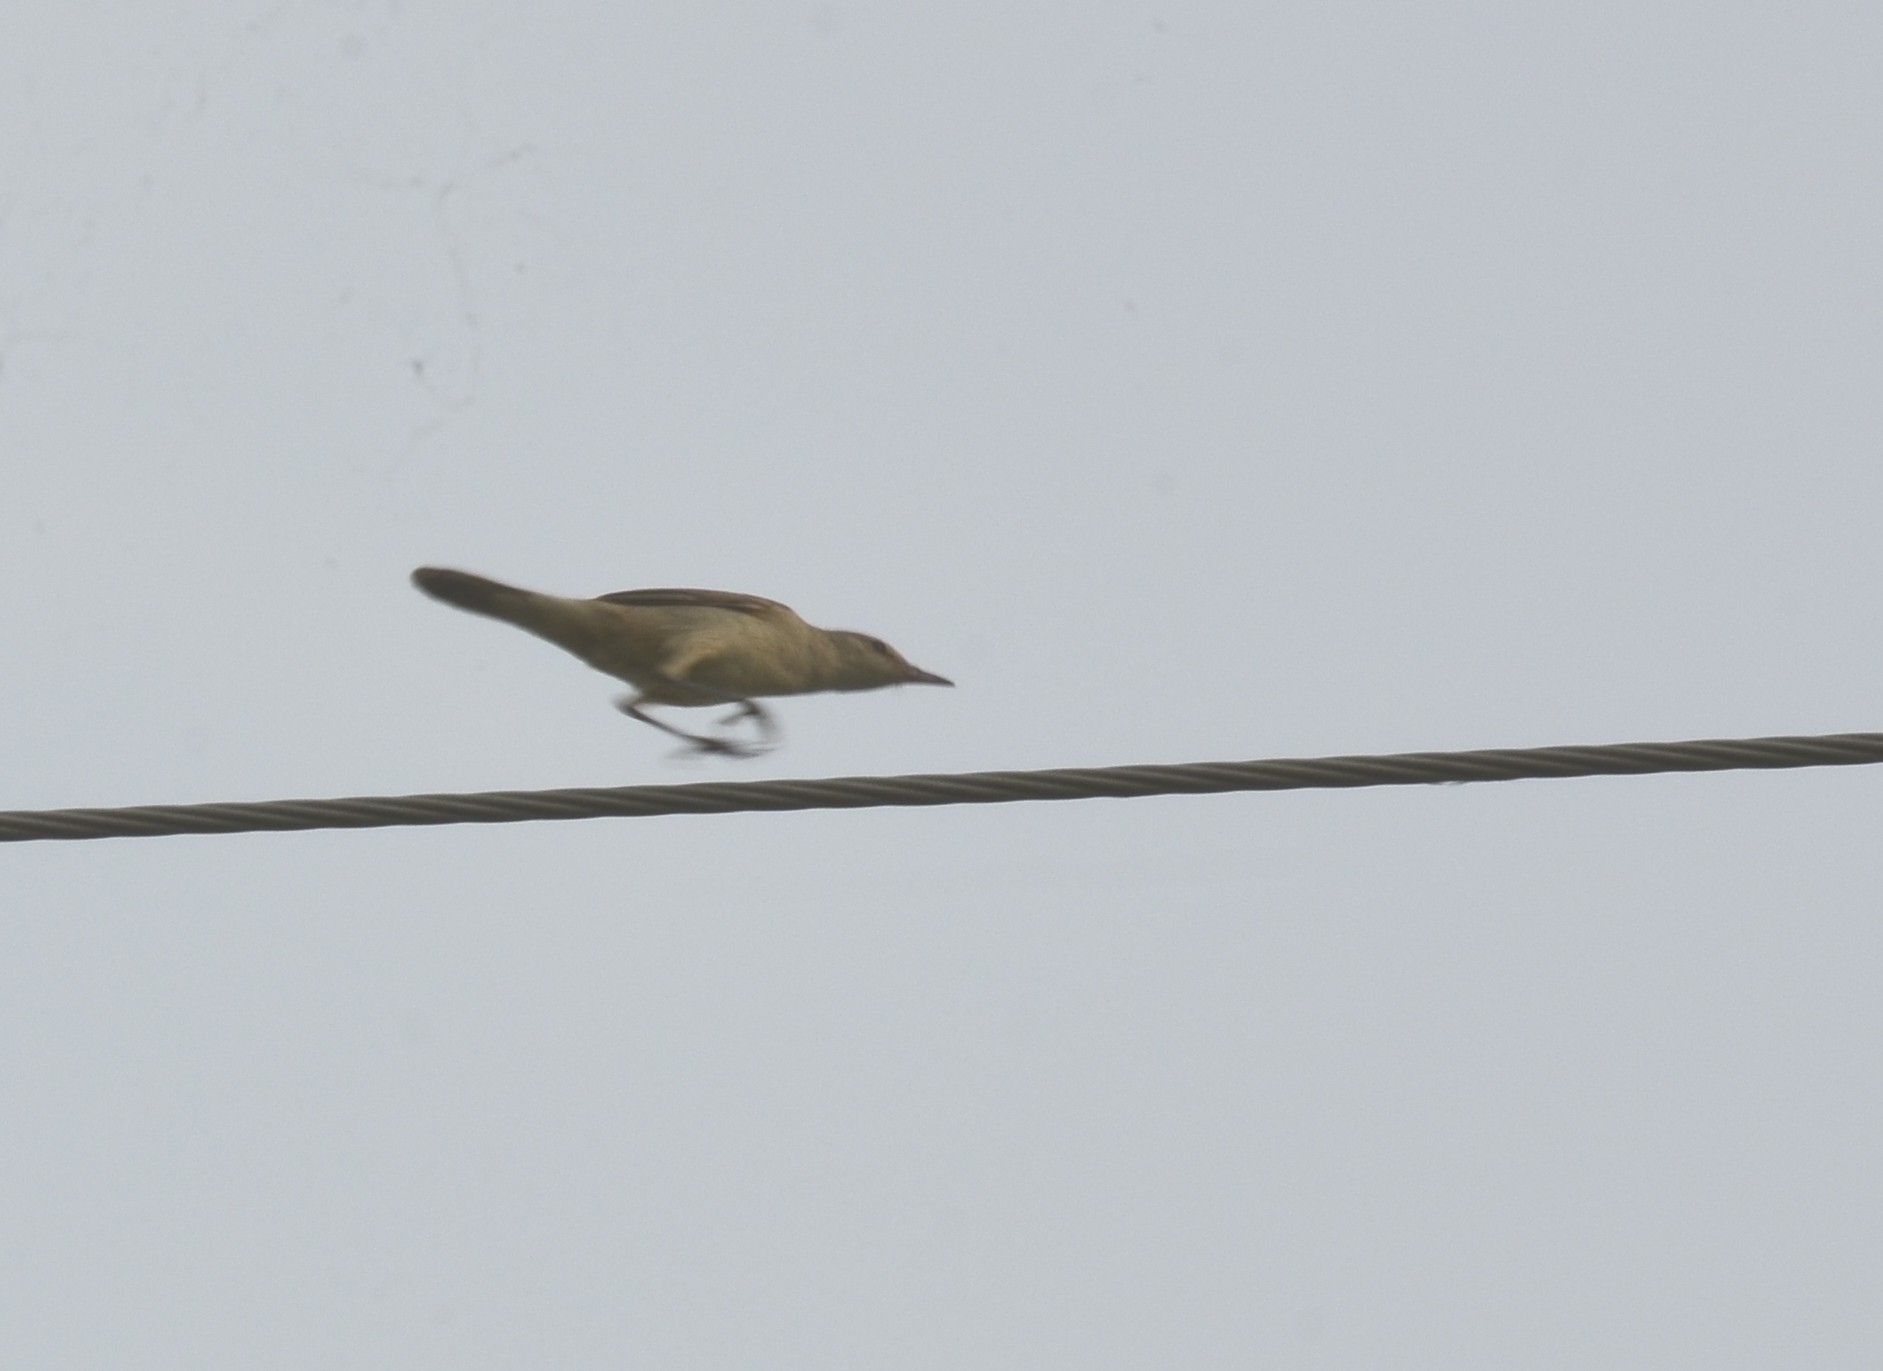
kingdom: Animalia
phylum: Chordata
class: Aves
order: Passeriformes
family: Acrocephalidae
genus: Acrocephalus
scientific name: Acrocephalus stentoreus
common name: Clamorous reed warbler
